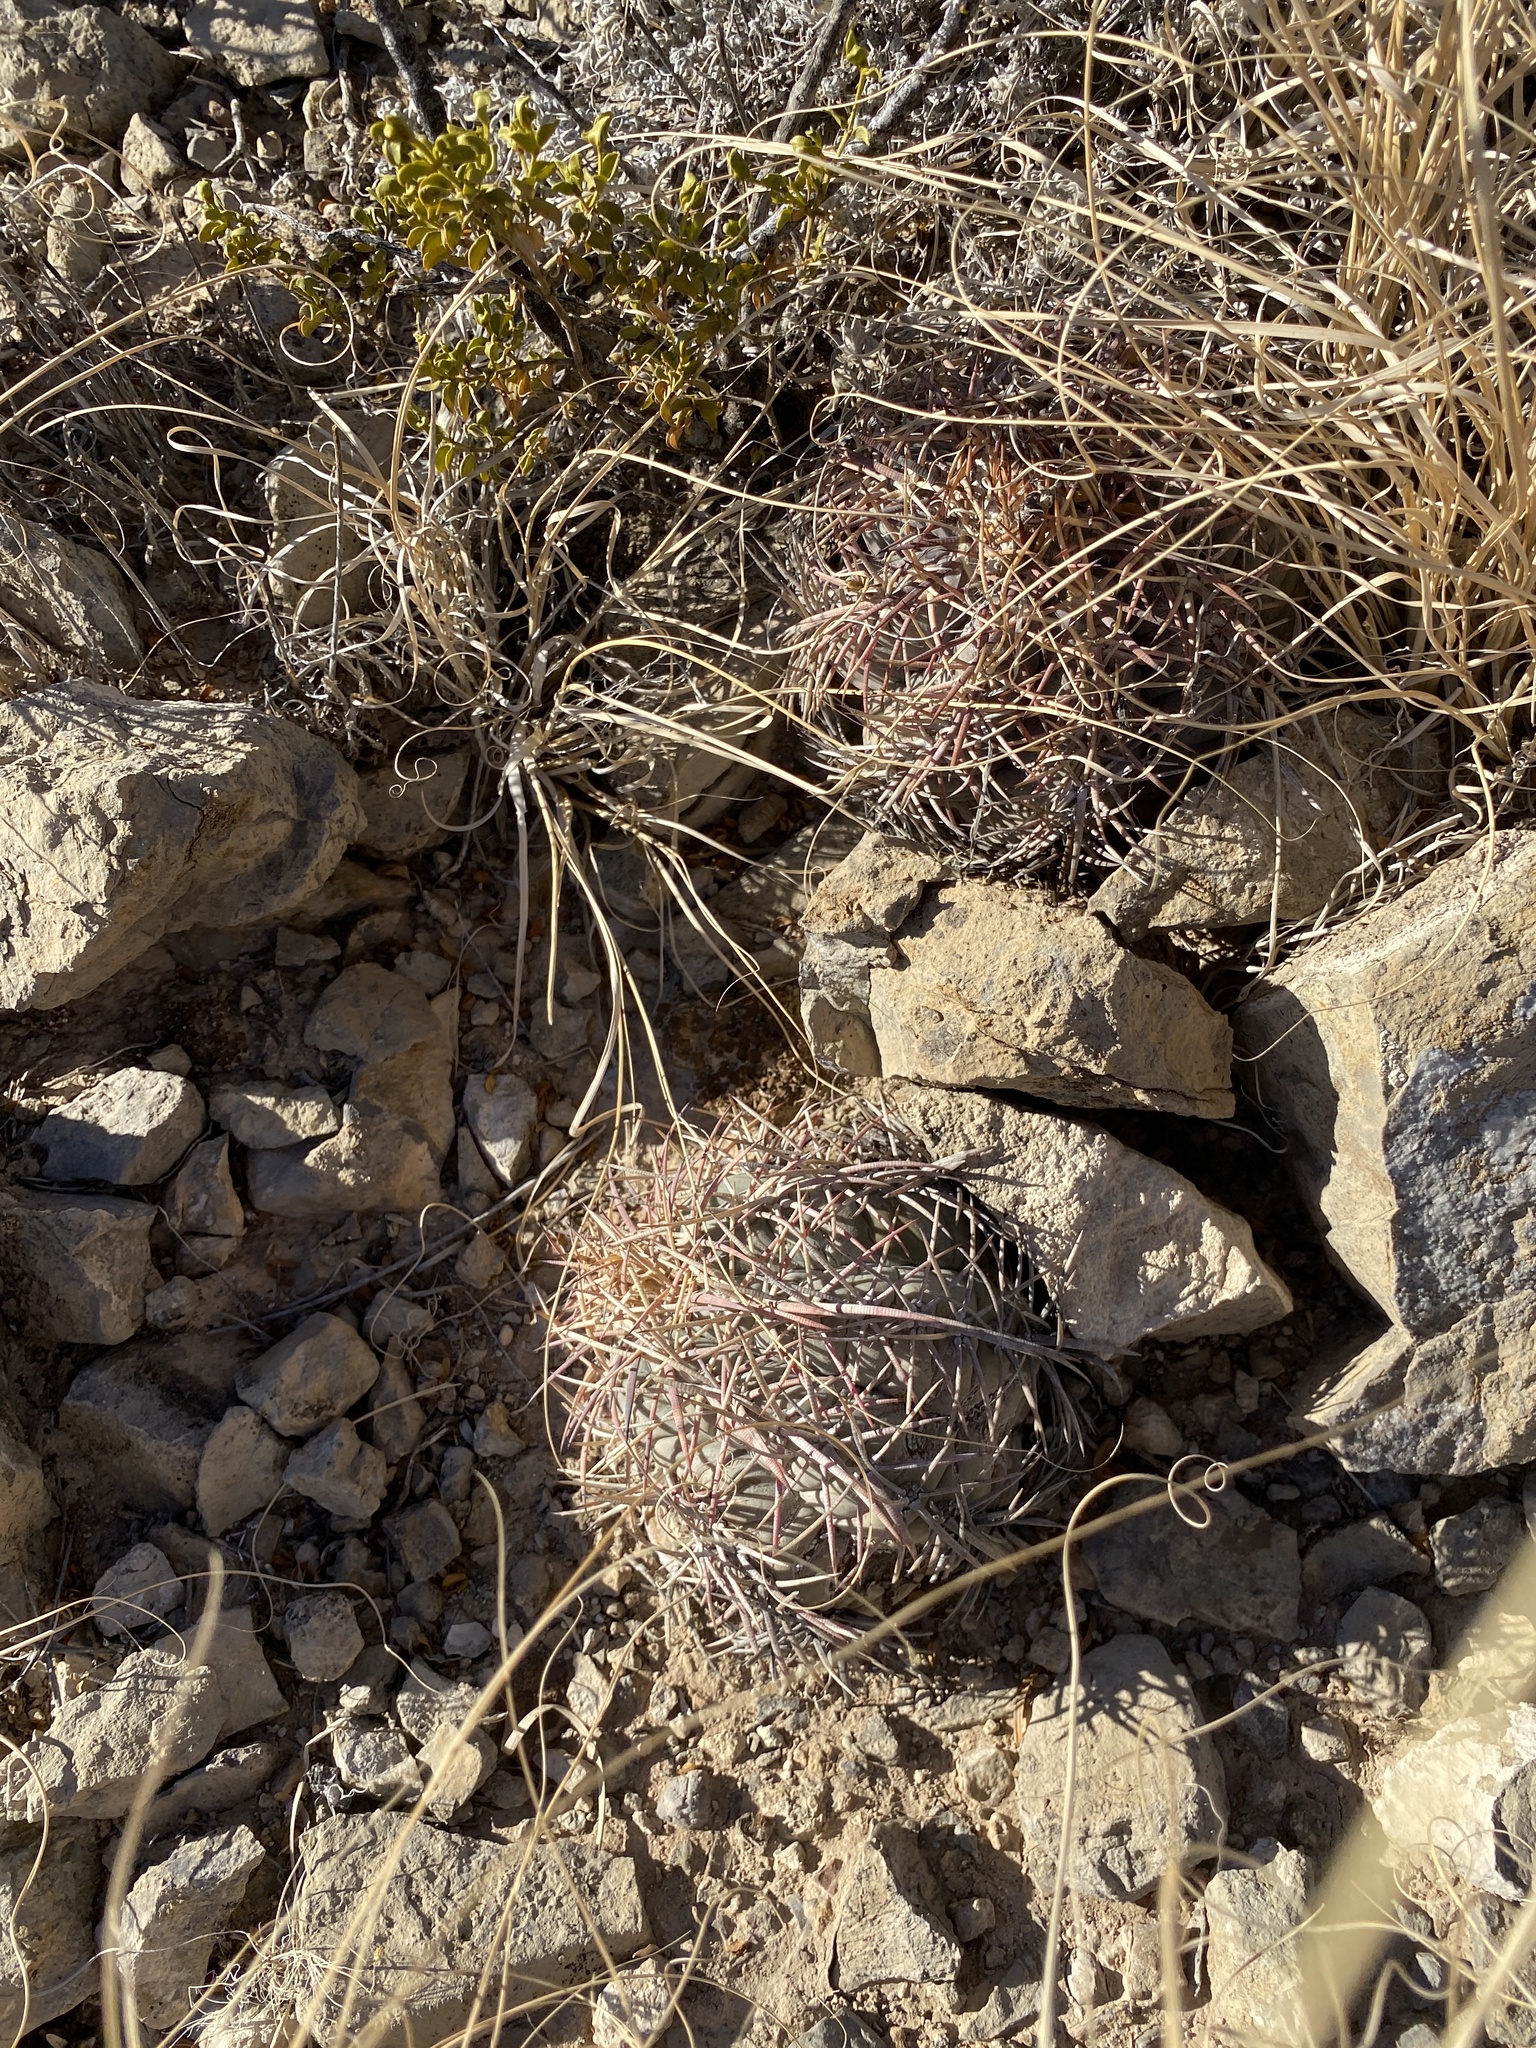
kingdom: Plantae
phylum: Tracheophyta
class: Magnoliopsida
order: Caryophyllales
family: Cactaceae
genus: Echinocactus
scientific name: Echinocactus horizonthalonius
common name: Devilshead
